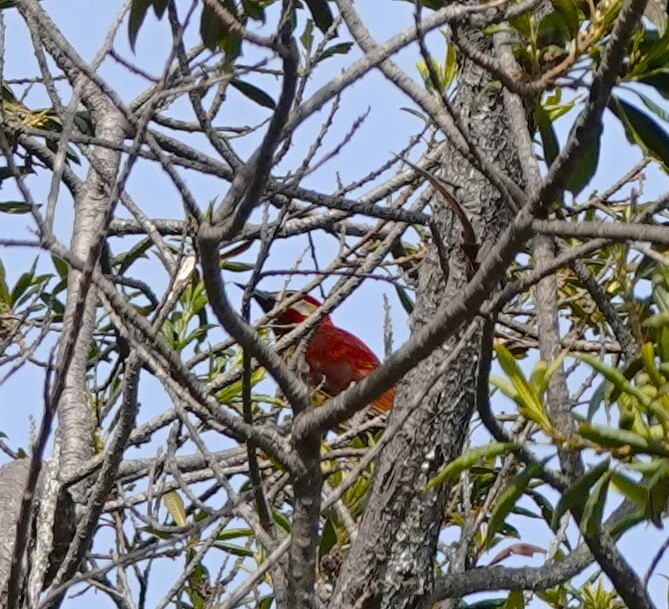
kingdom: Animalia
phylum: Chordata
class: Aves
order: Piciformes
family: Picidae
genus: Colaptes
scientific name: Colaptes rivolii
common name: Crimson-mantled woodpecker
